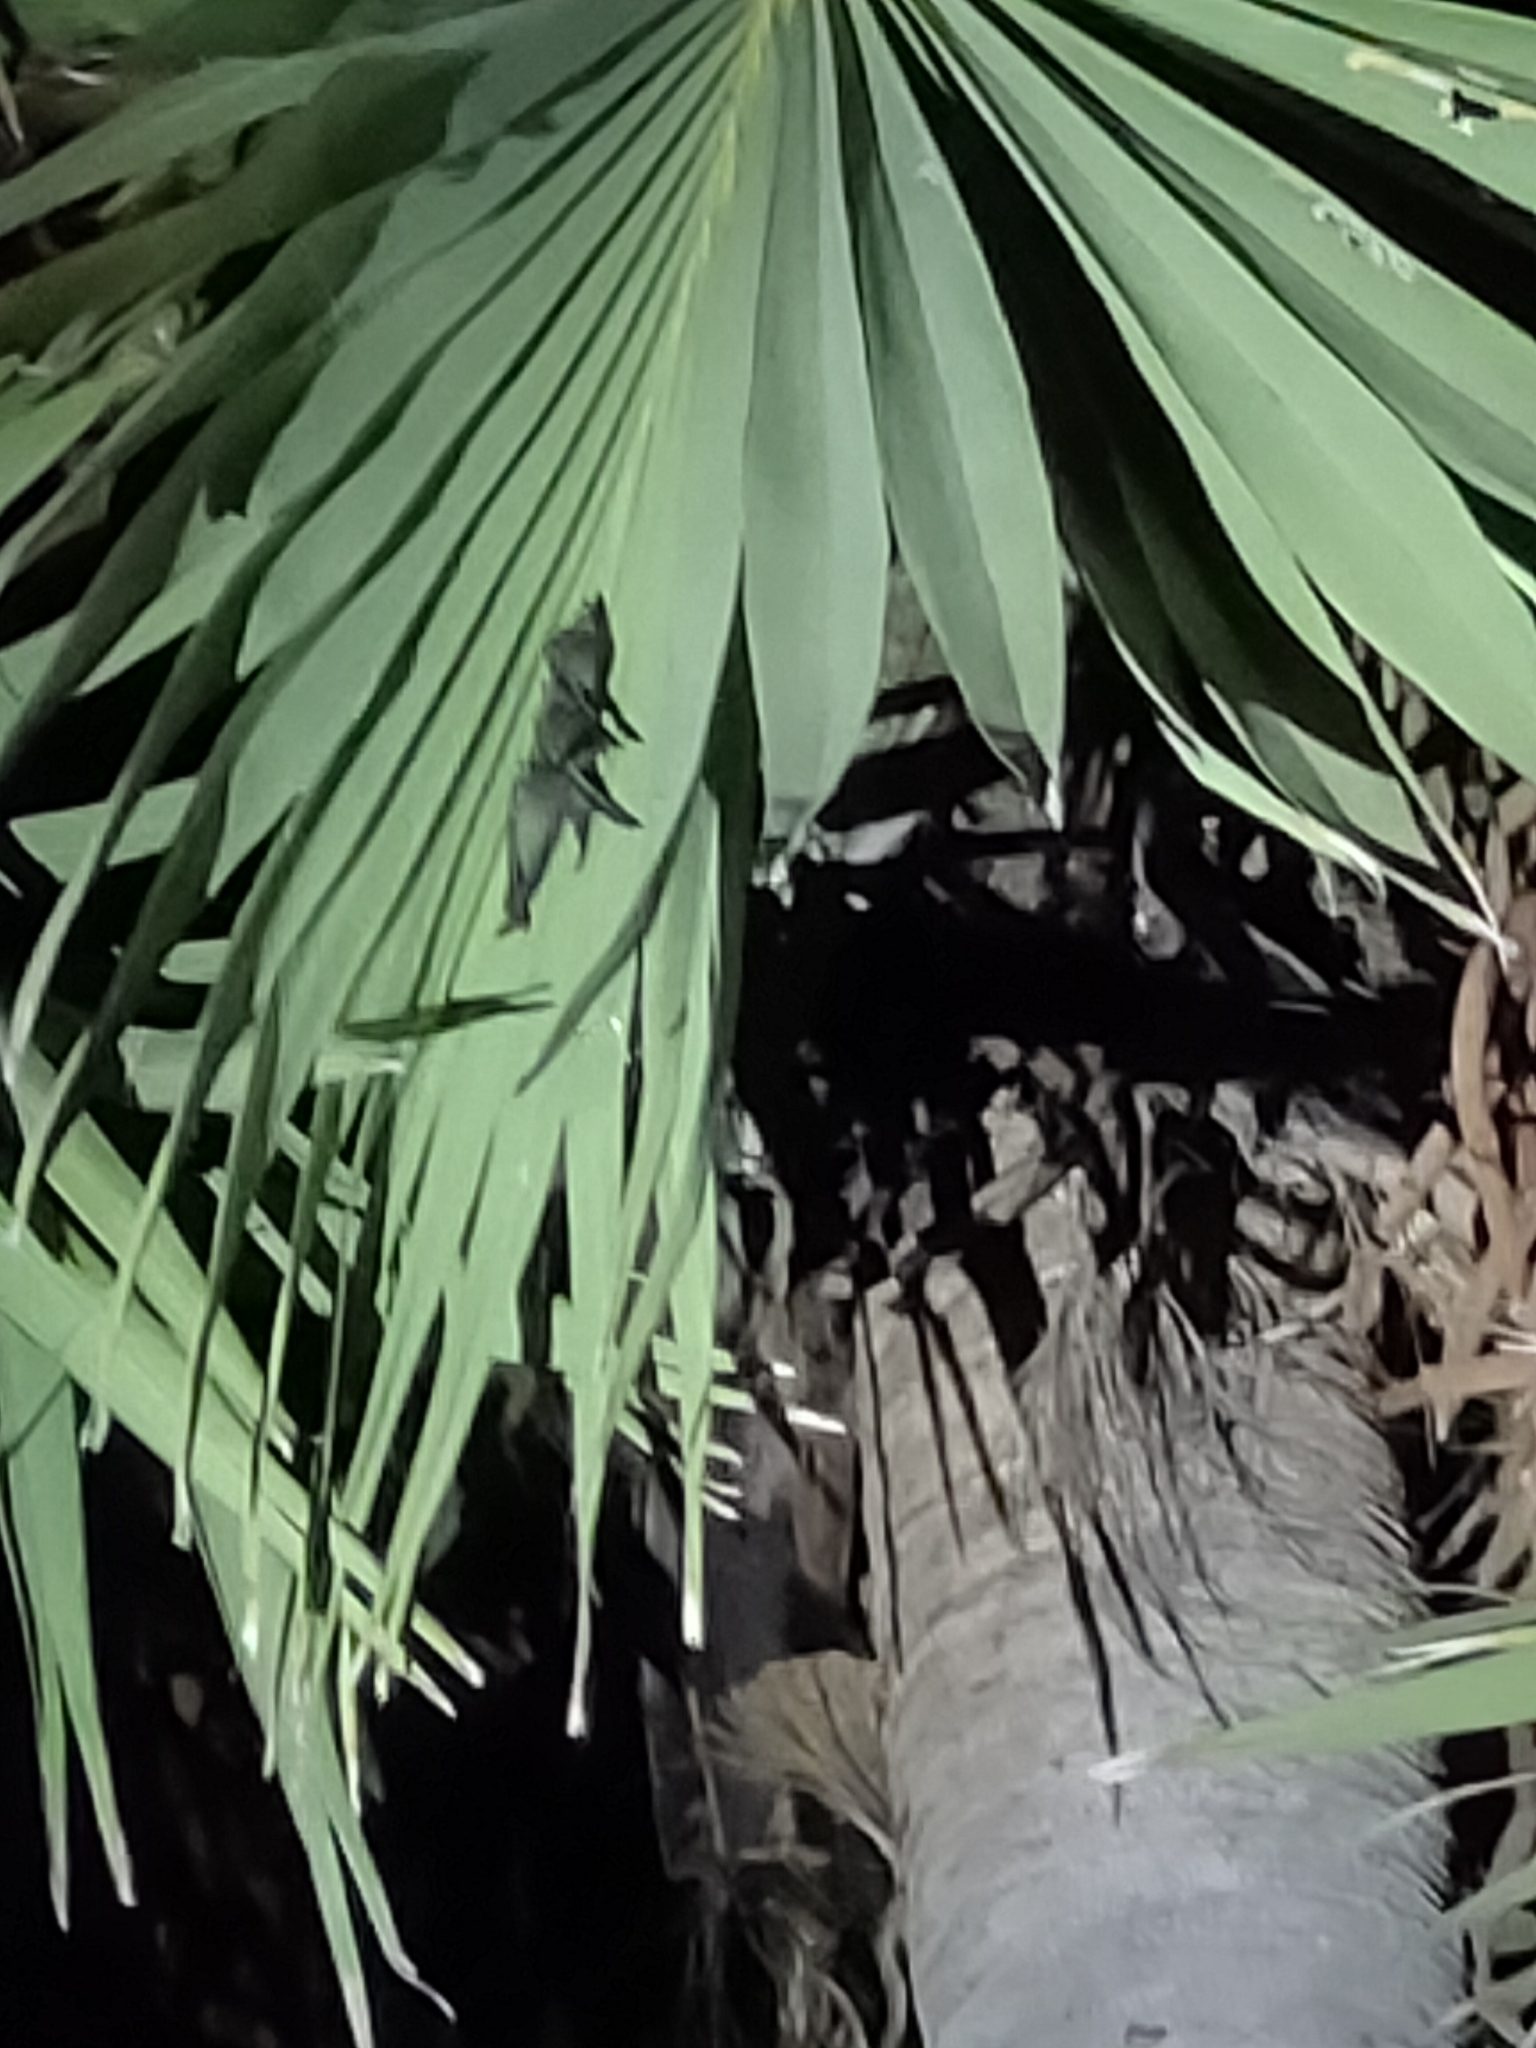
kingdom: Animalia
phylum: Chordata
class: Aves
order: Apodiformes
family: Apodidae
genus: Cypsiurus
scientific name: Cypsiurus balasiensis
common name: Asian palm swift
